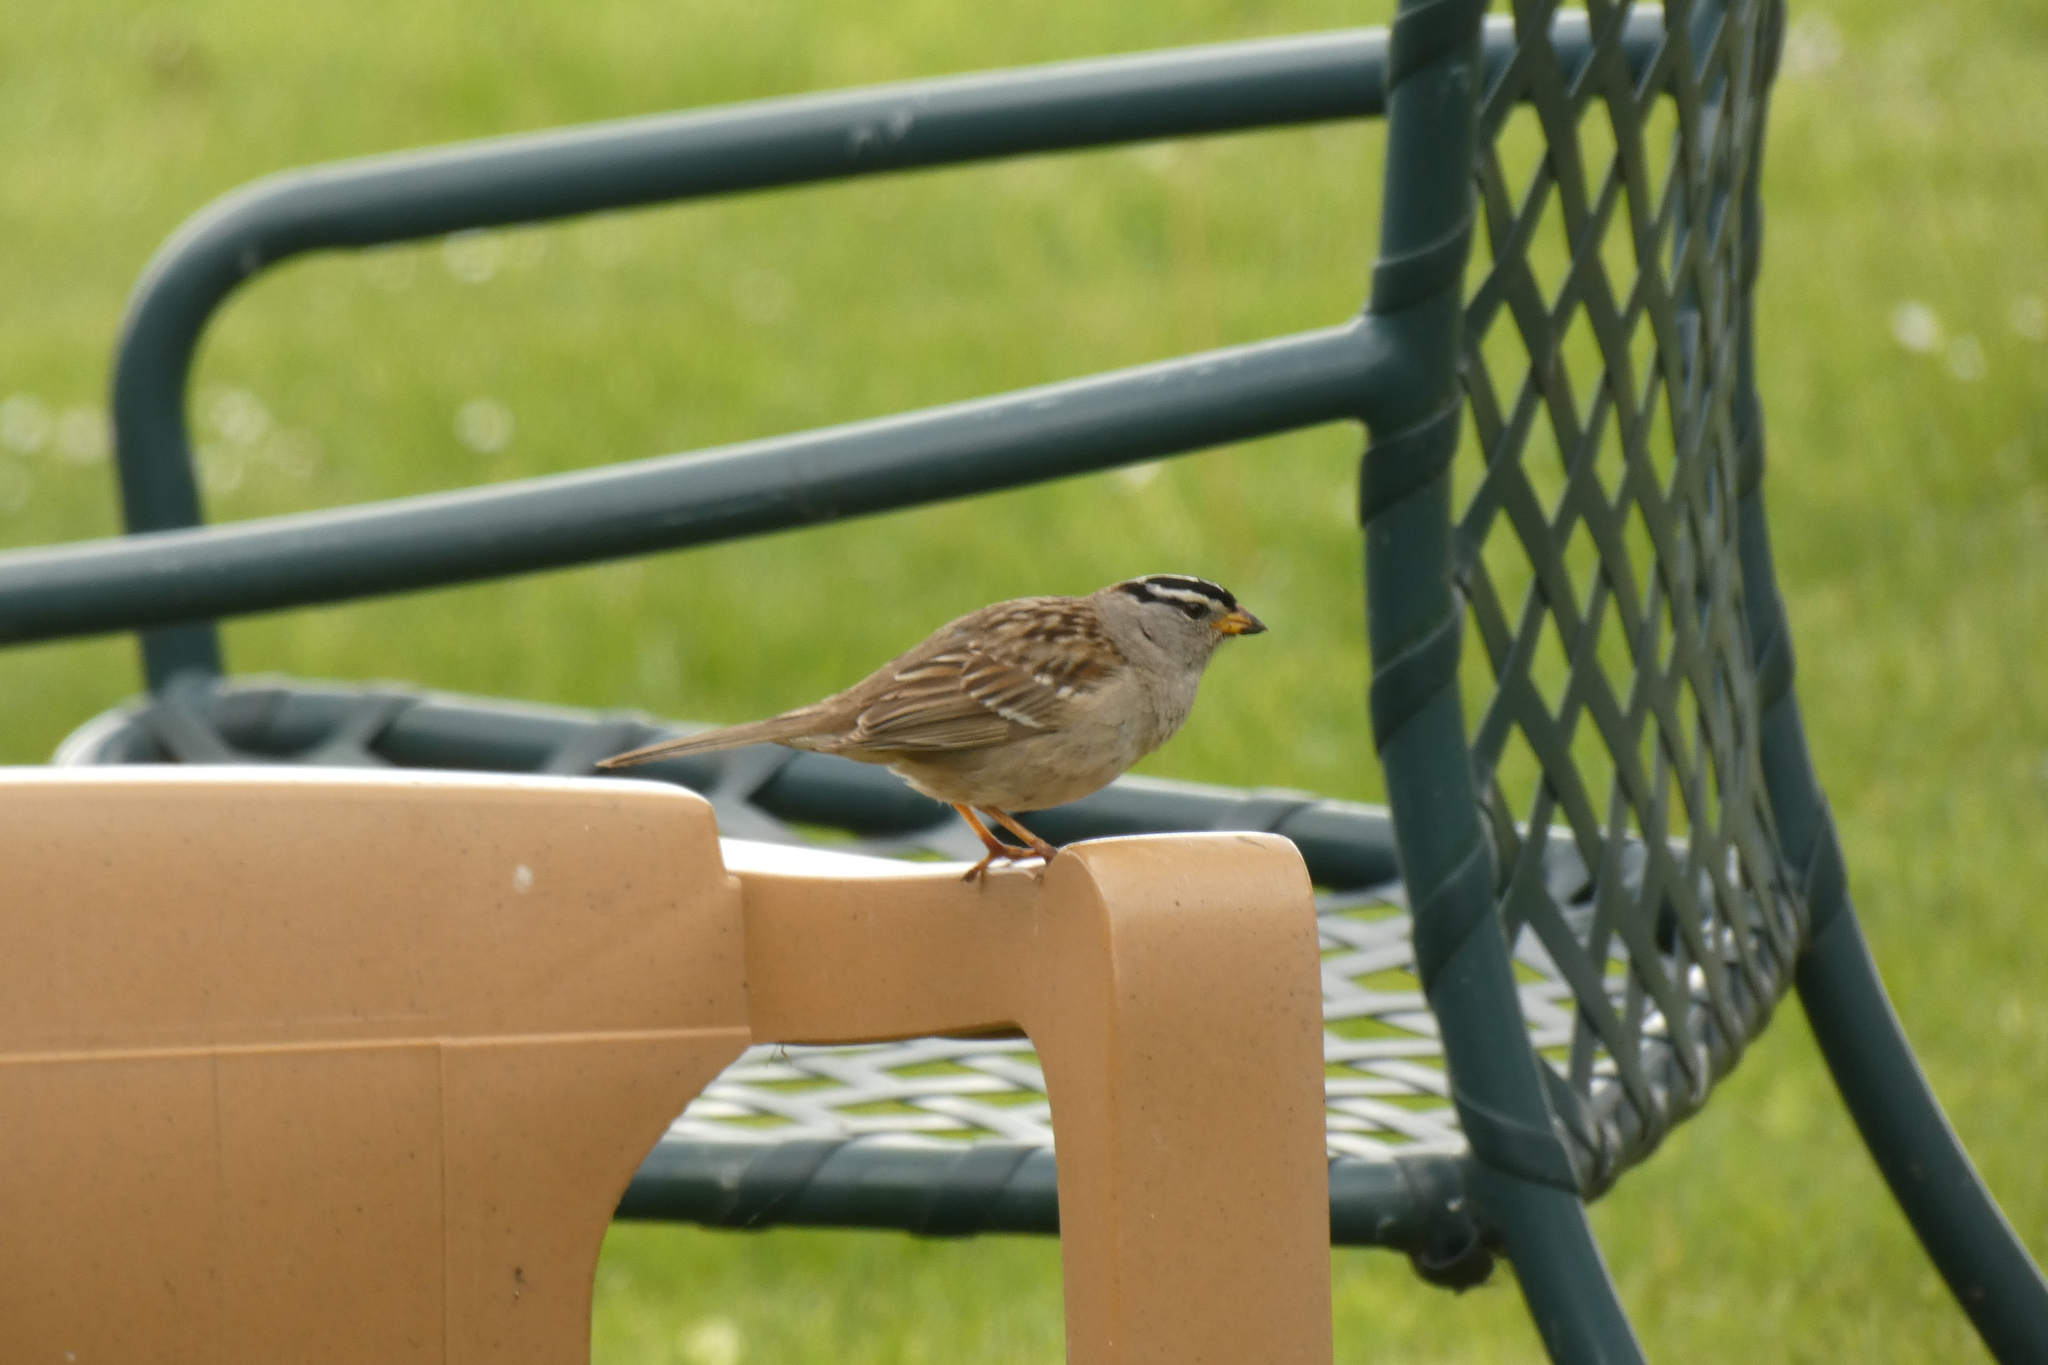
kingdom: Animalia
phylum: Chordata
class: Aves
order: Passeriformes
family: Passerellidae
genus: Zonotrichia
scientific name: Zonotrichia leucophrys
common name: White-crowned sparrow
